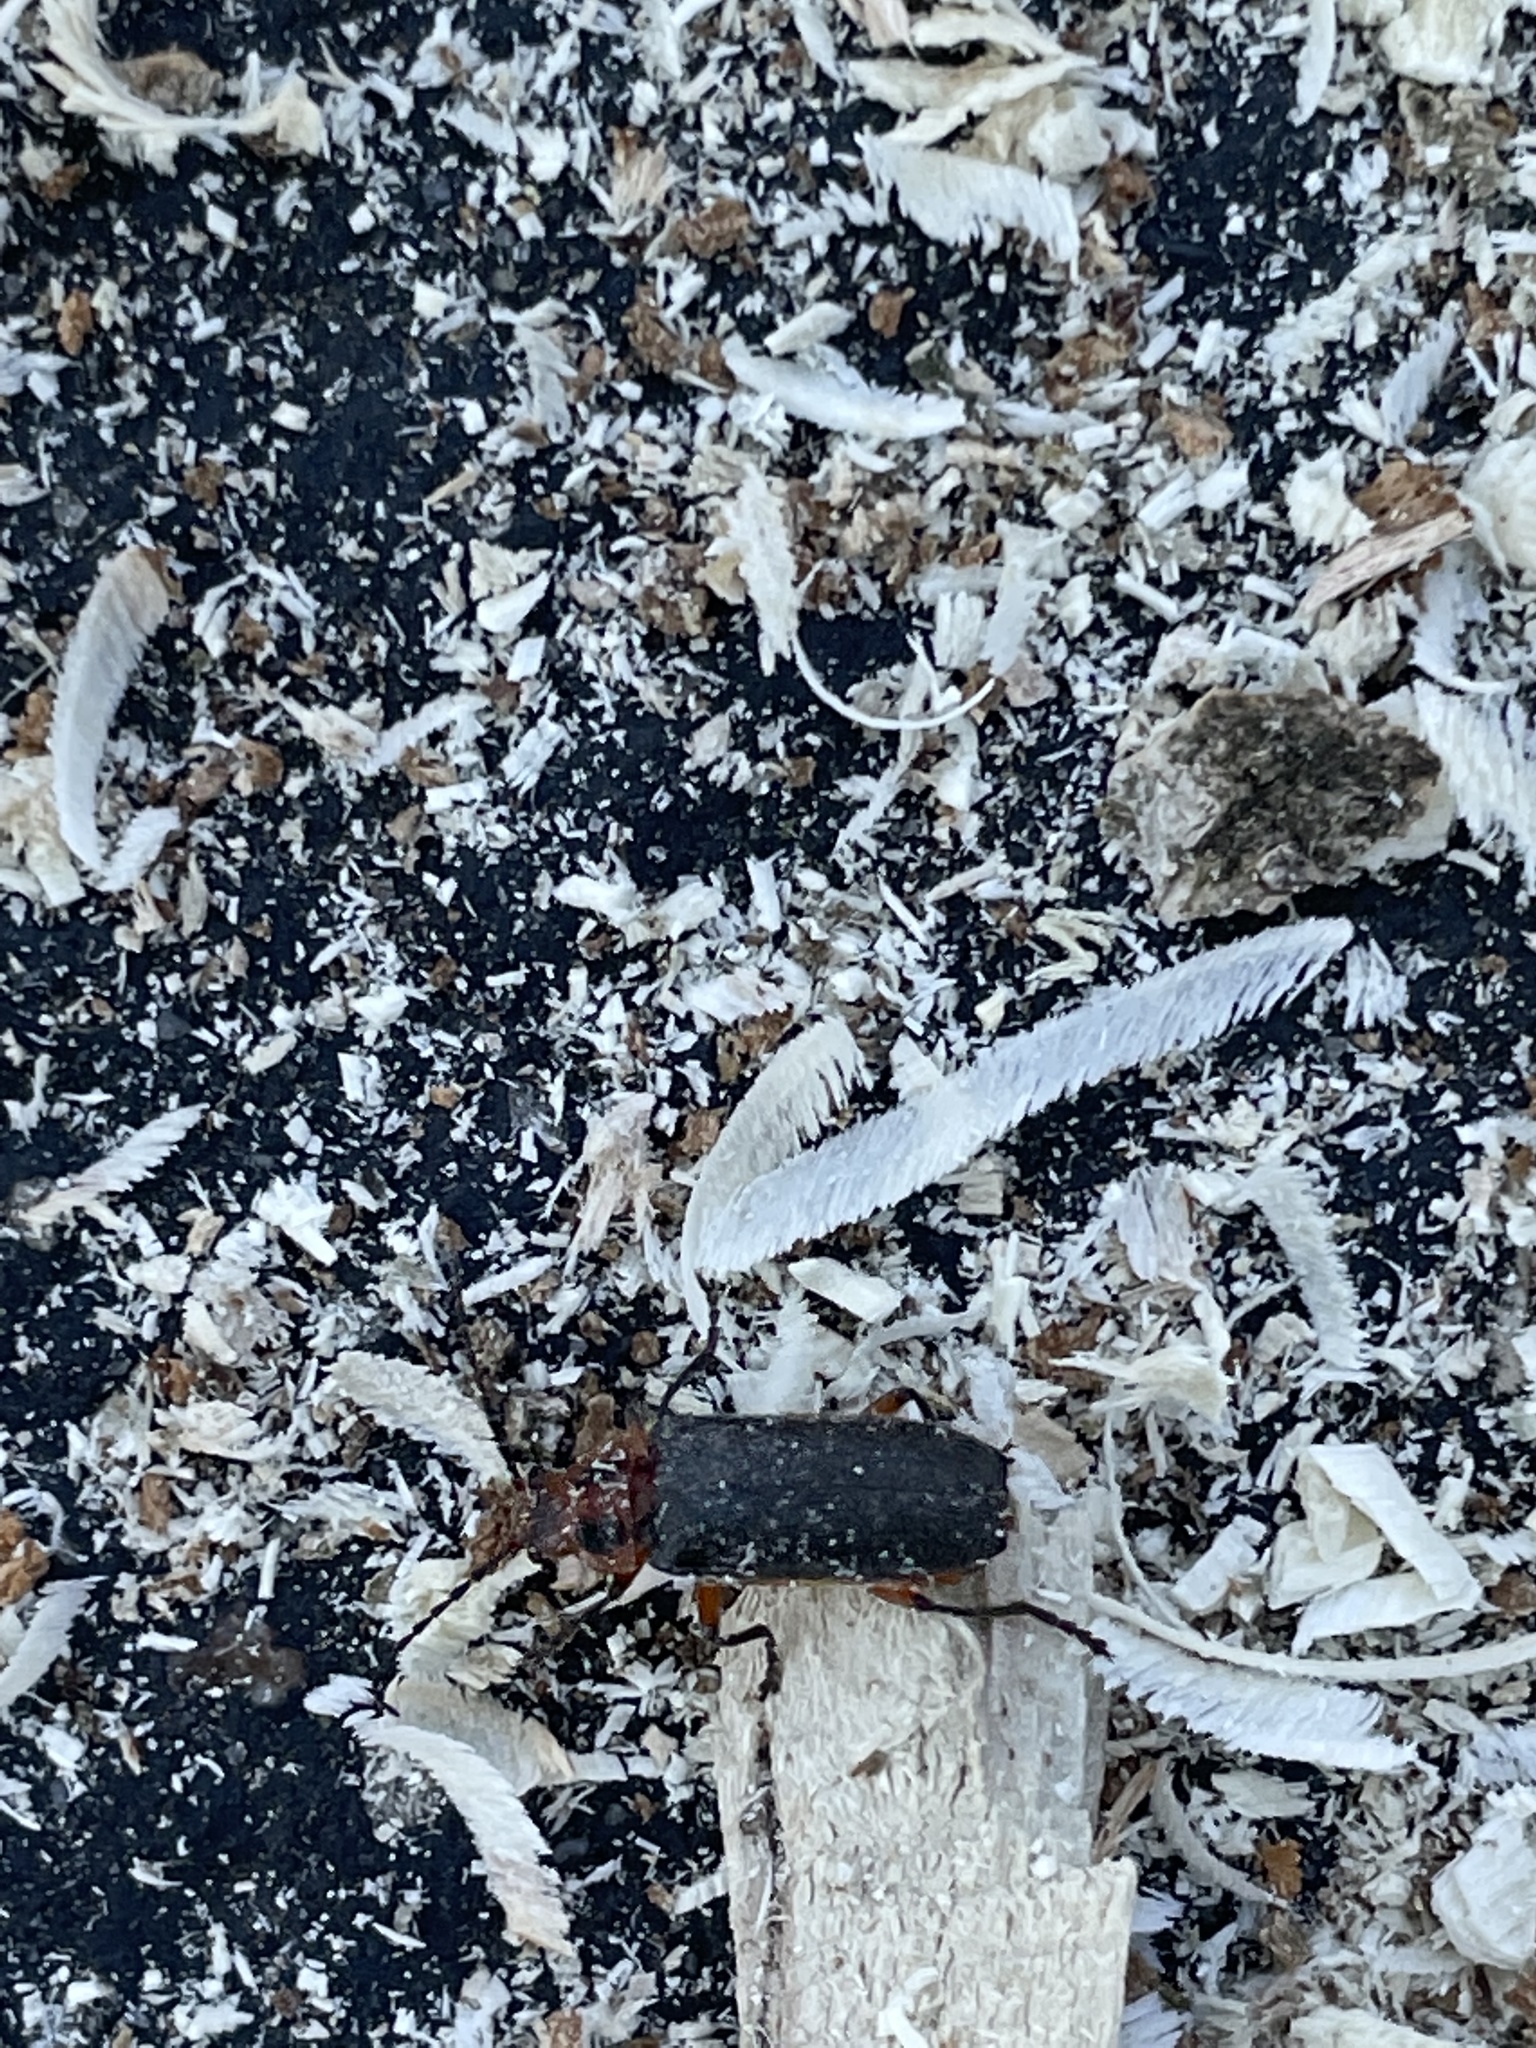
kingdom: Animalia
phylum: Arthropoda
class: Insecta
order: Coleoptera
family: Cantharidae
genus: Atalantycha
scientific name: Atalantycha bilineata
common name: Two-lined leatherwing
